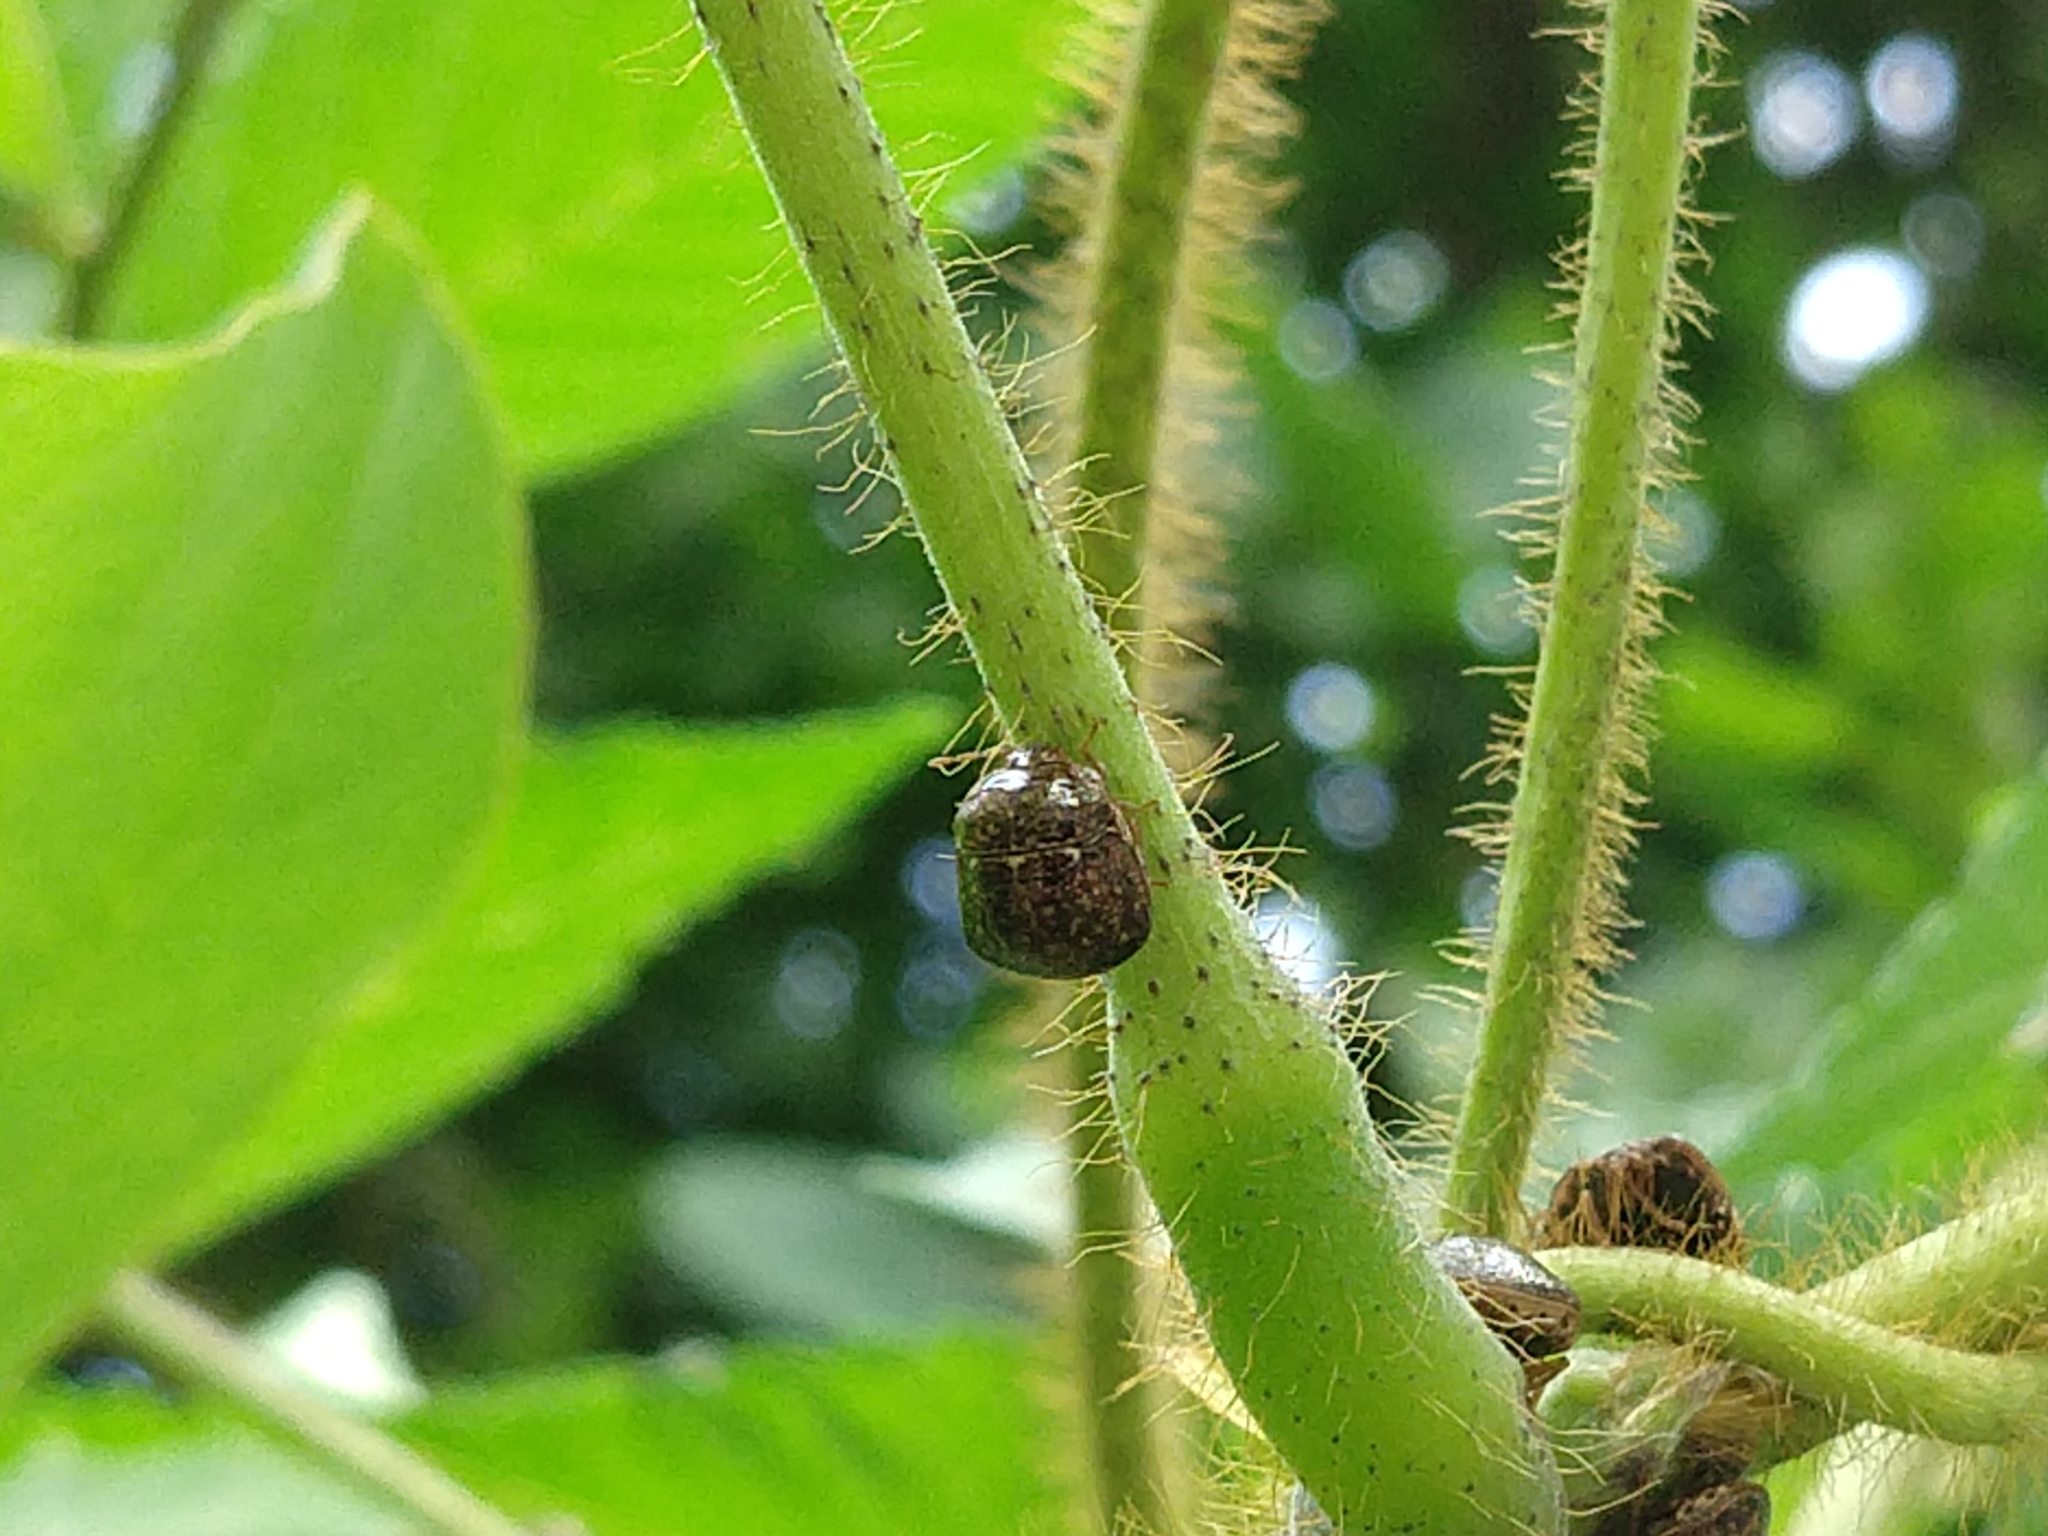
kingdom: Animalia
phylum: Arthropoda
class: Insecta
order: Hemiptera
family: Plataspidae
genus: Megacopta
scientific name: Megacopta cribraria
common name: Bean plataspid
